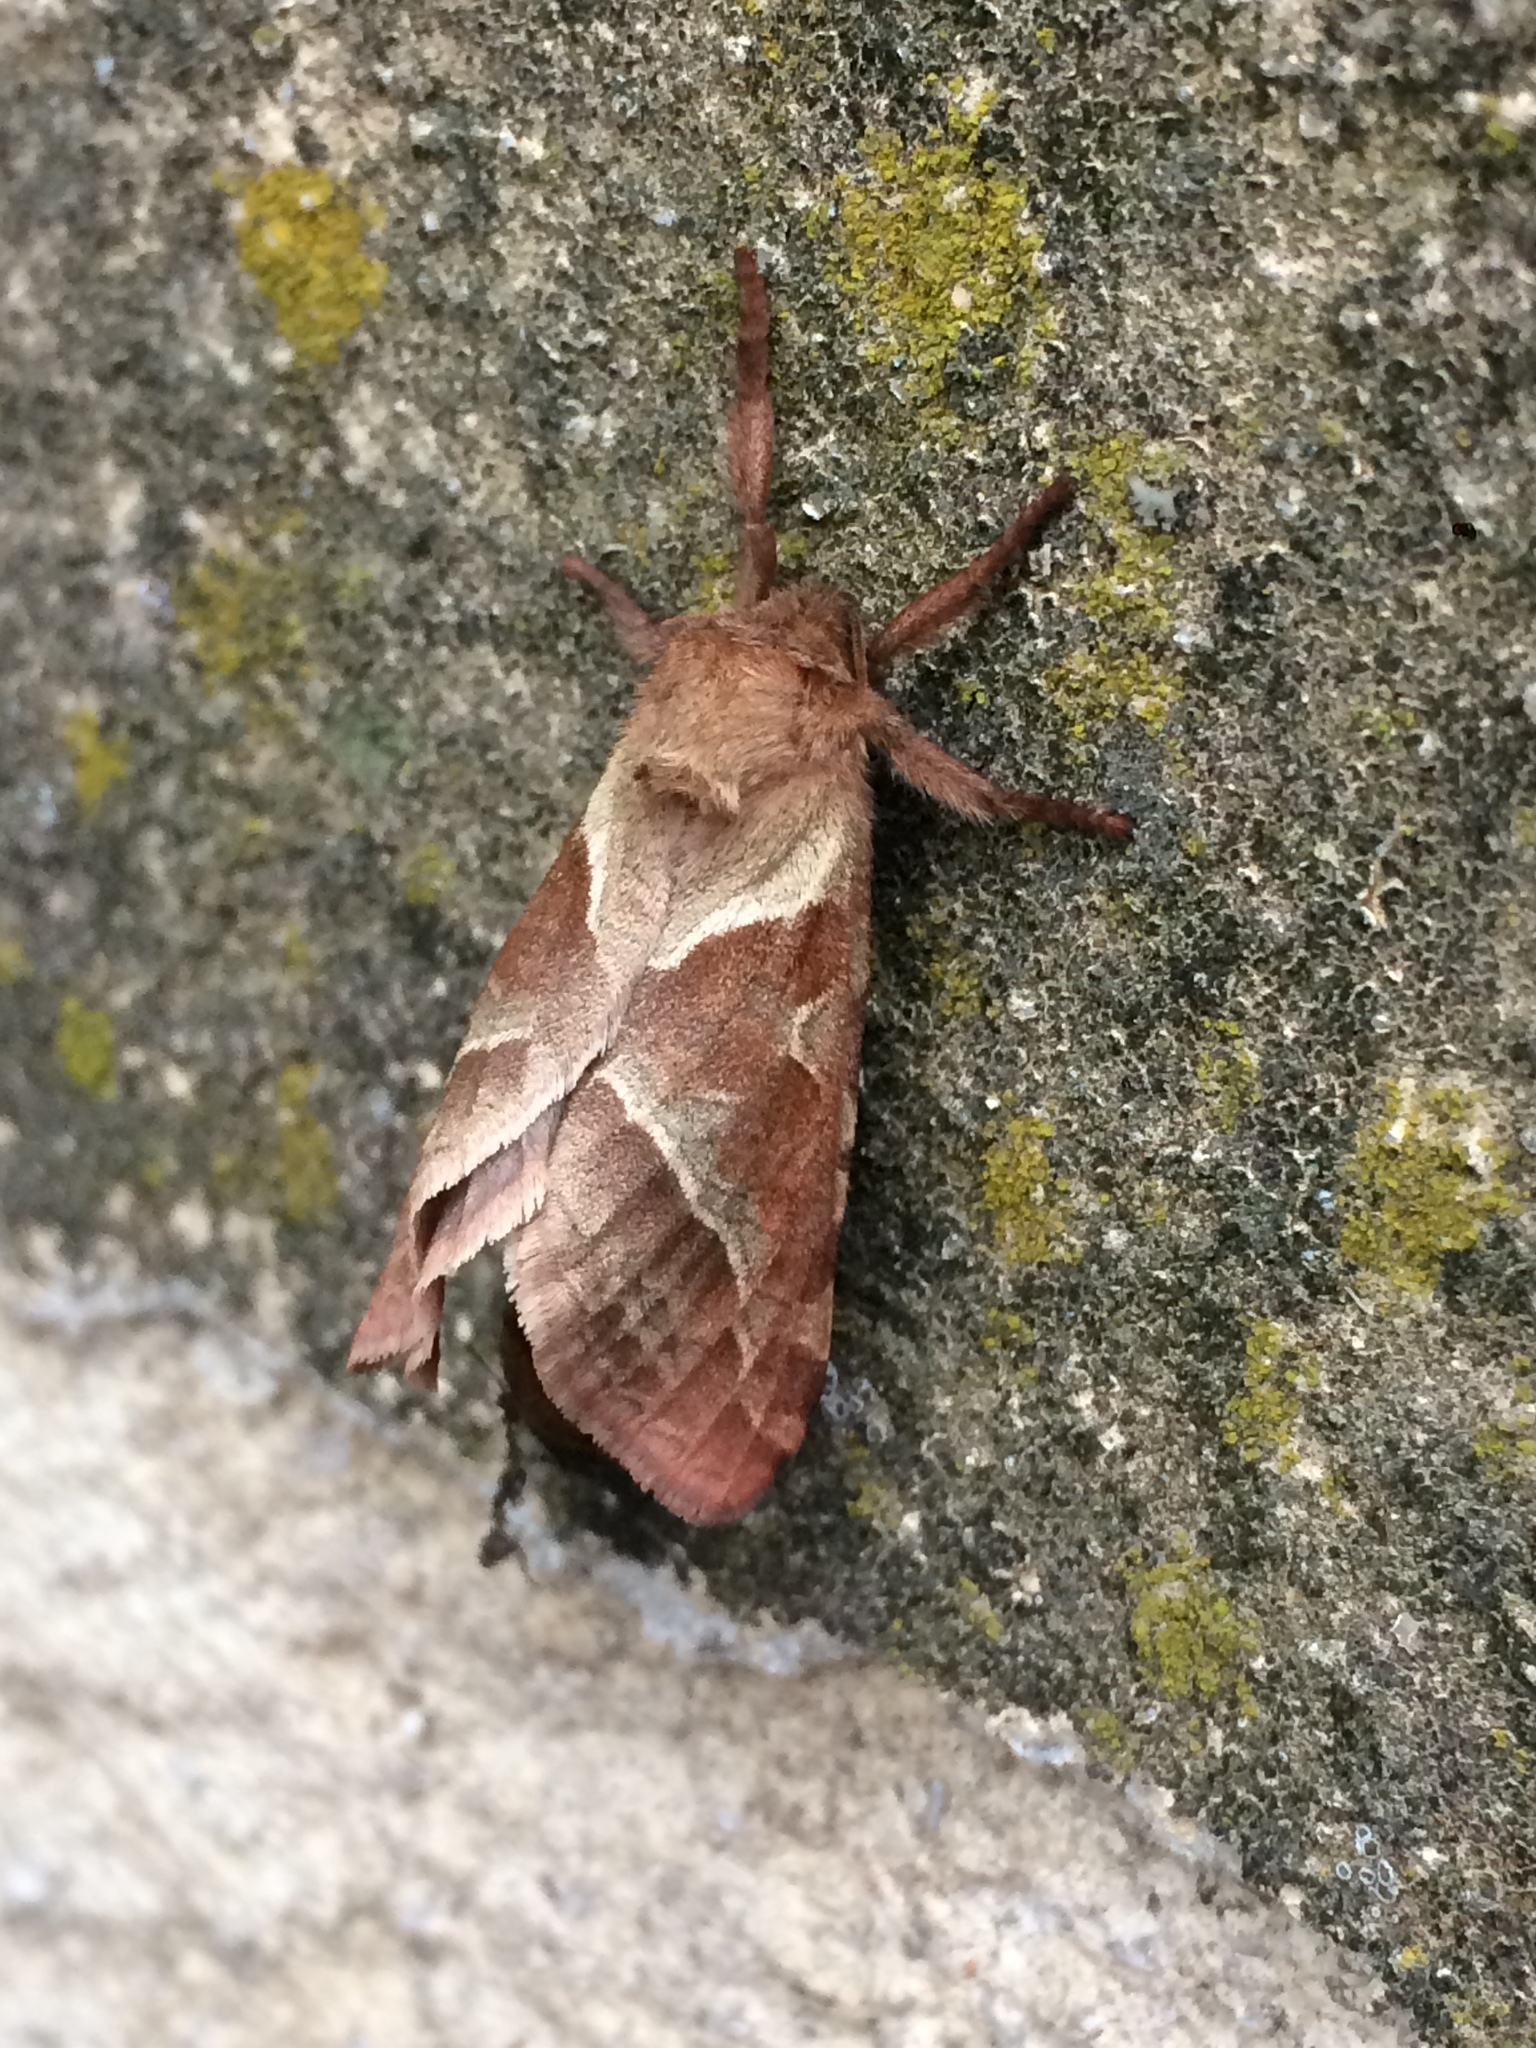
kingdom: Animalia
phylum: Arthropoda
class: Insecta
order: Lepidoptera
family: Hepialidae
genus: Triodia
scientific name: Triodia sylvina
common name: Orange swift
